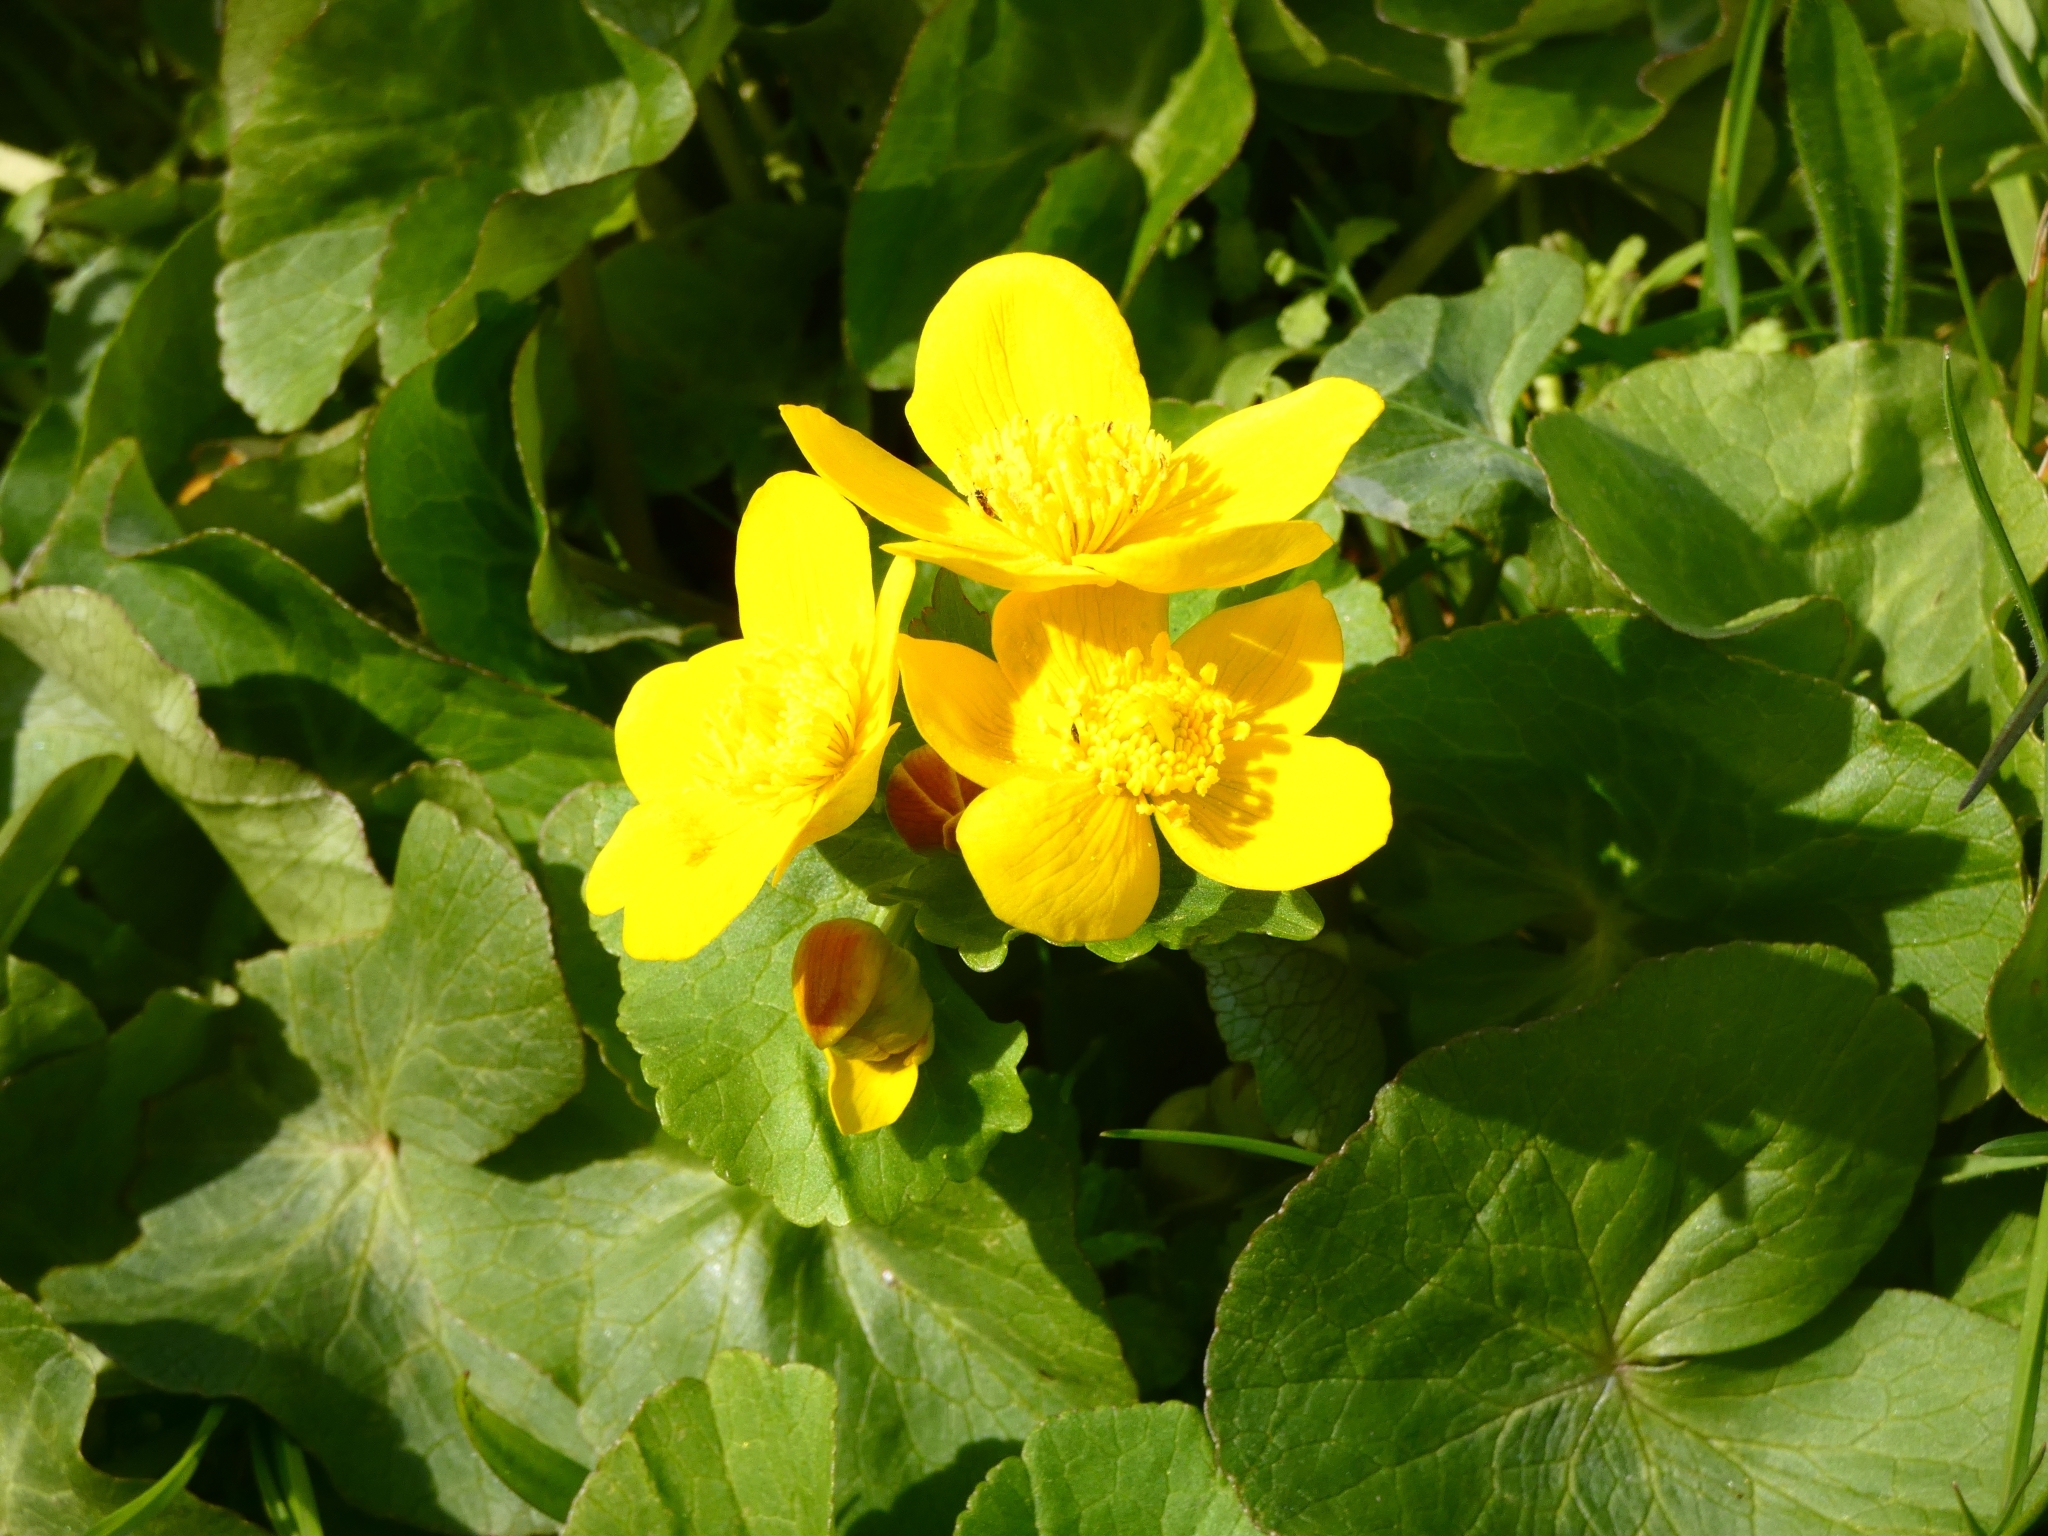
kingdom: Plantae
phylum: Tracheophyta
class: Magnoliopsida
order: Ranunculales
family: Ranunculaceae
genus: Caltha
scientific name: Caltha palustris
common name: Marsh marigold
